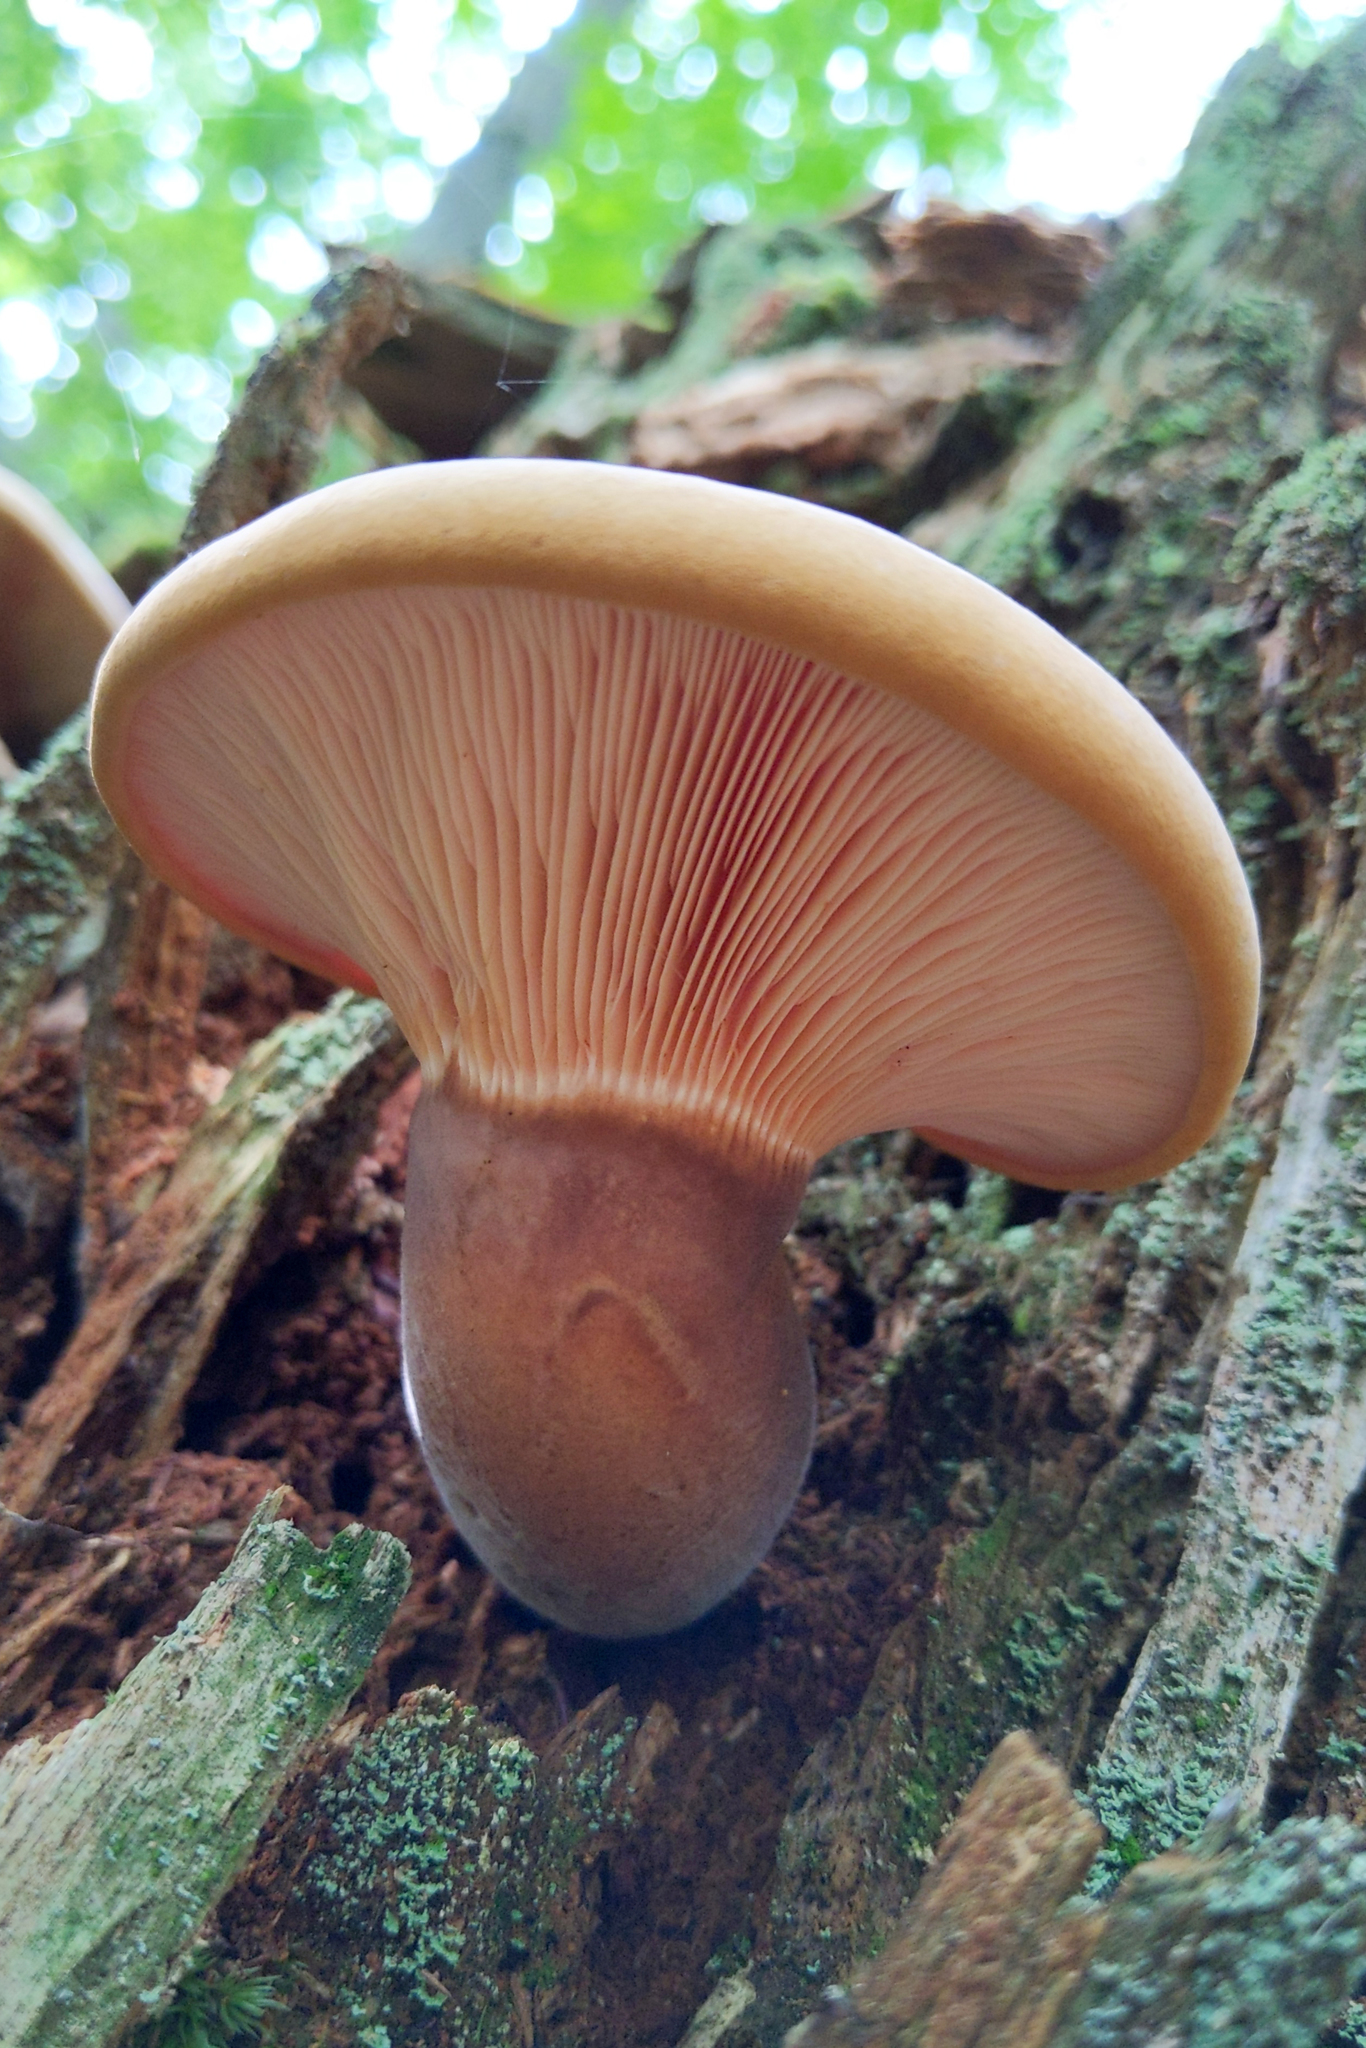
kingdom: Fungi
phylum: Basidiomycota
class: Agaricomycetes
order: Boletales
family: Tapinellaceae
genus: Tapinella
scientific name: Tapinella atrotomentosa
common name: Velvet rollrim
